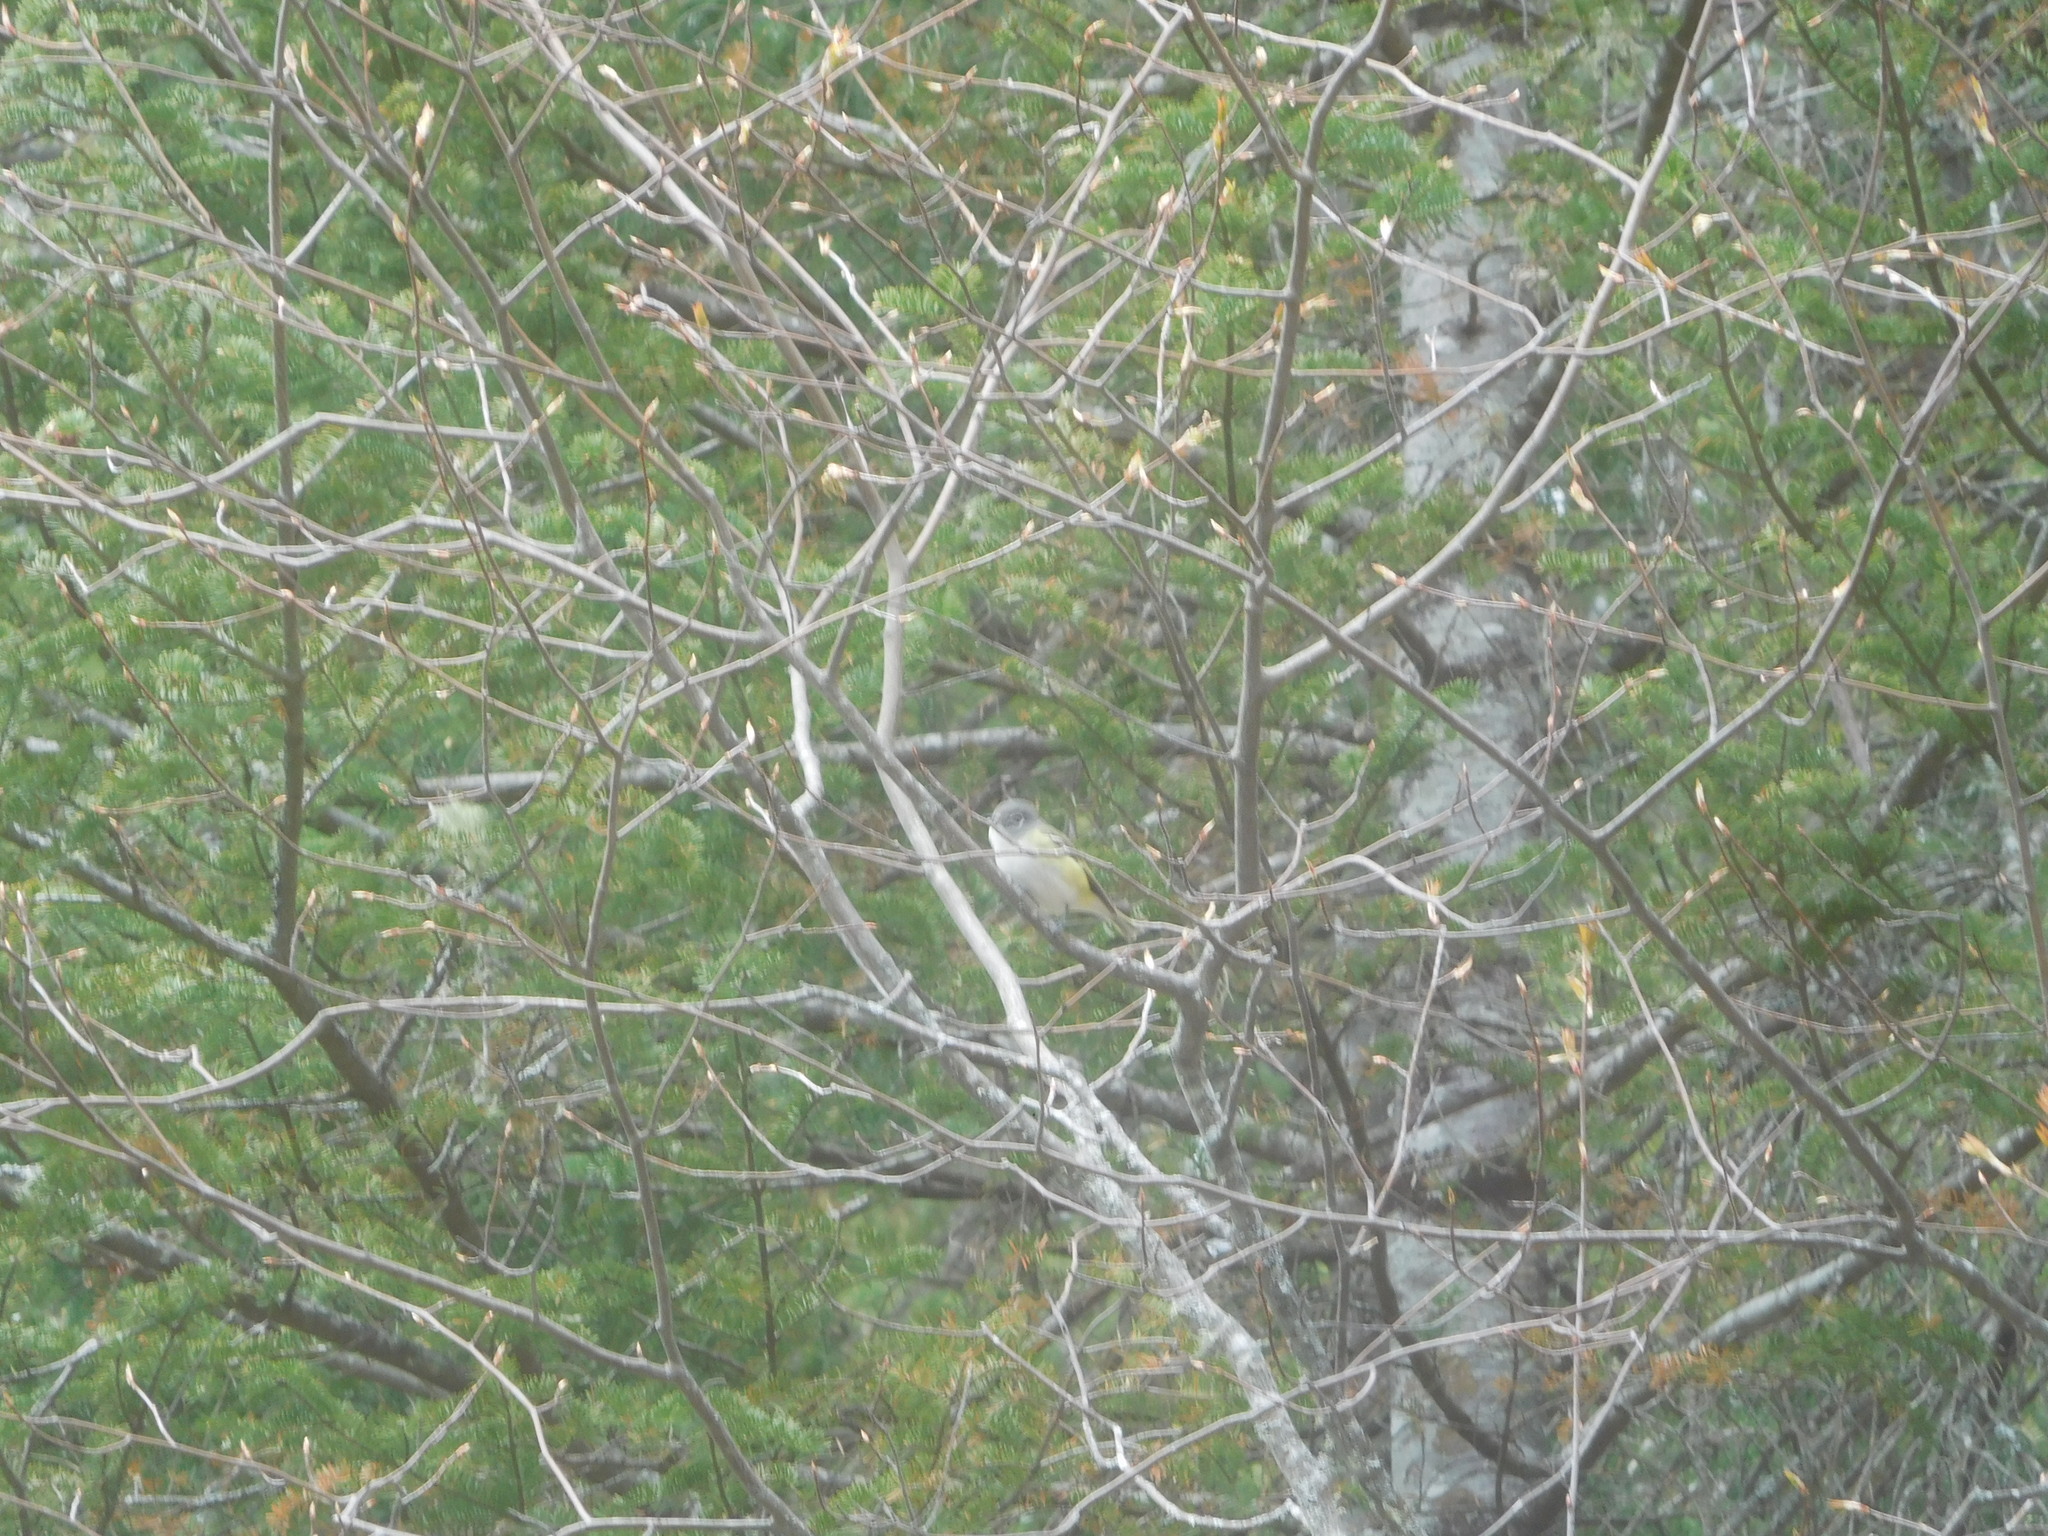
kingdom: Animalia
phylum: Chordata
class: Aves
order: Passeriformes
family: Vireonidae
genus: Vireo
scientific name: Vireo solitarius
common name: Blue-headed vireo
